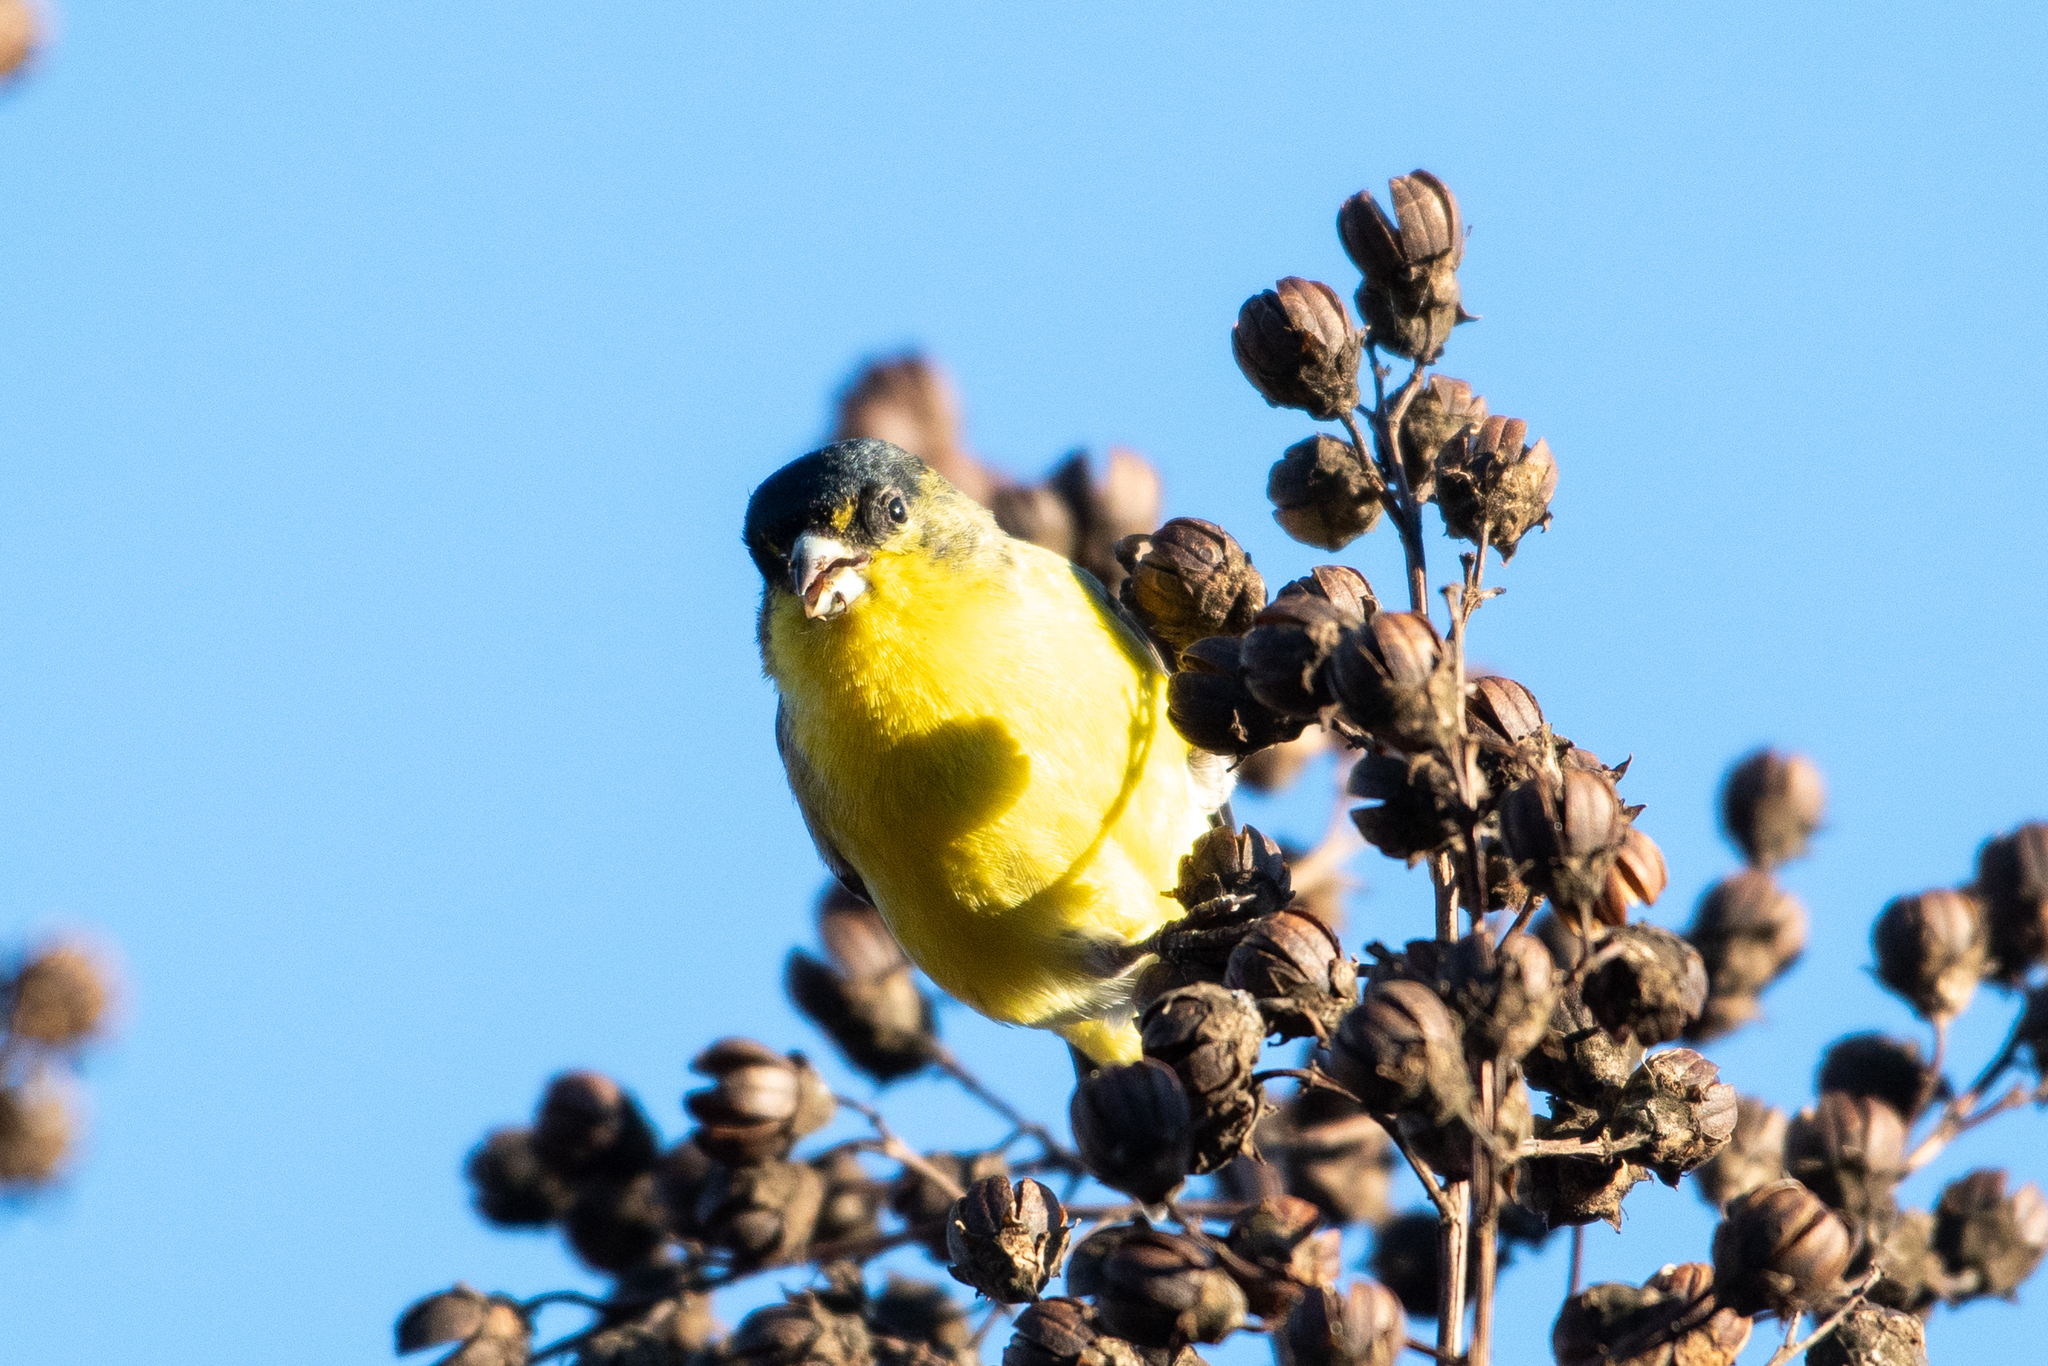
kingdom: Animalia
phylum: Chordata
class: Aves
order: Passeriformes
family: Fringillidae
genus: Spinus
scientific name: Spinus psaltria
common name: Lesser goldfinch
